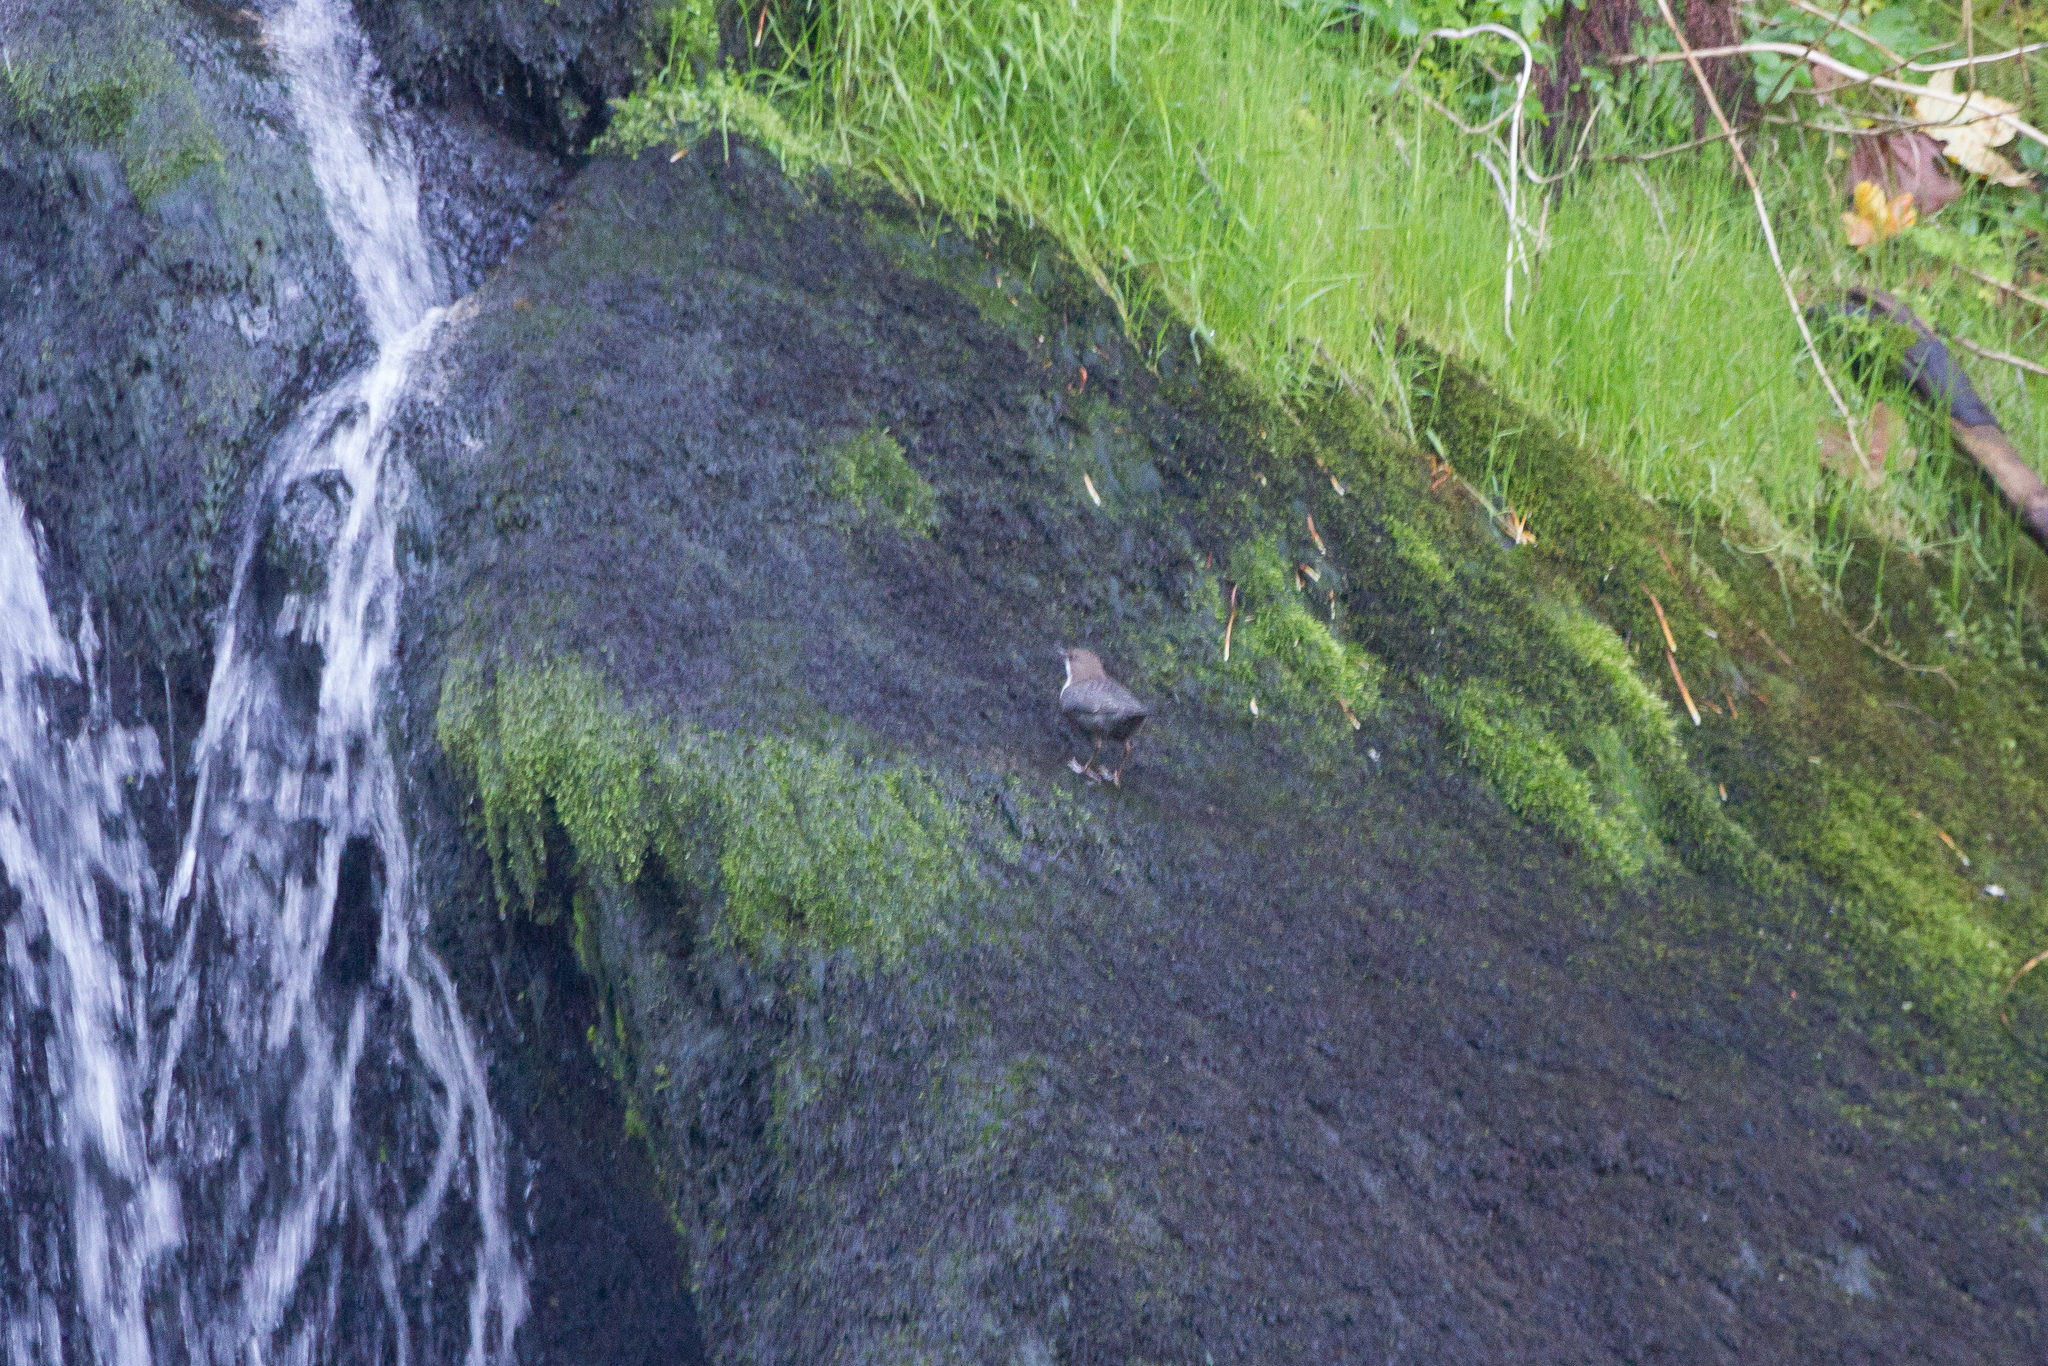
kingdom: Animalia
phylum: Chordata
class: Aves
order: Passeriformes
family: Cinclidae
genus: Cinclus
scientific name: Cinclus cinclus
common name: White-throated dipper
